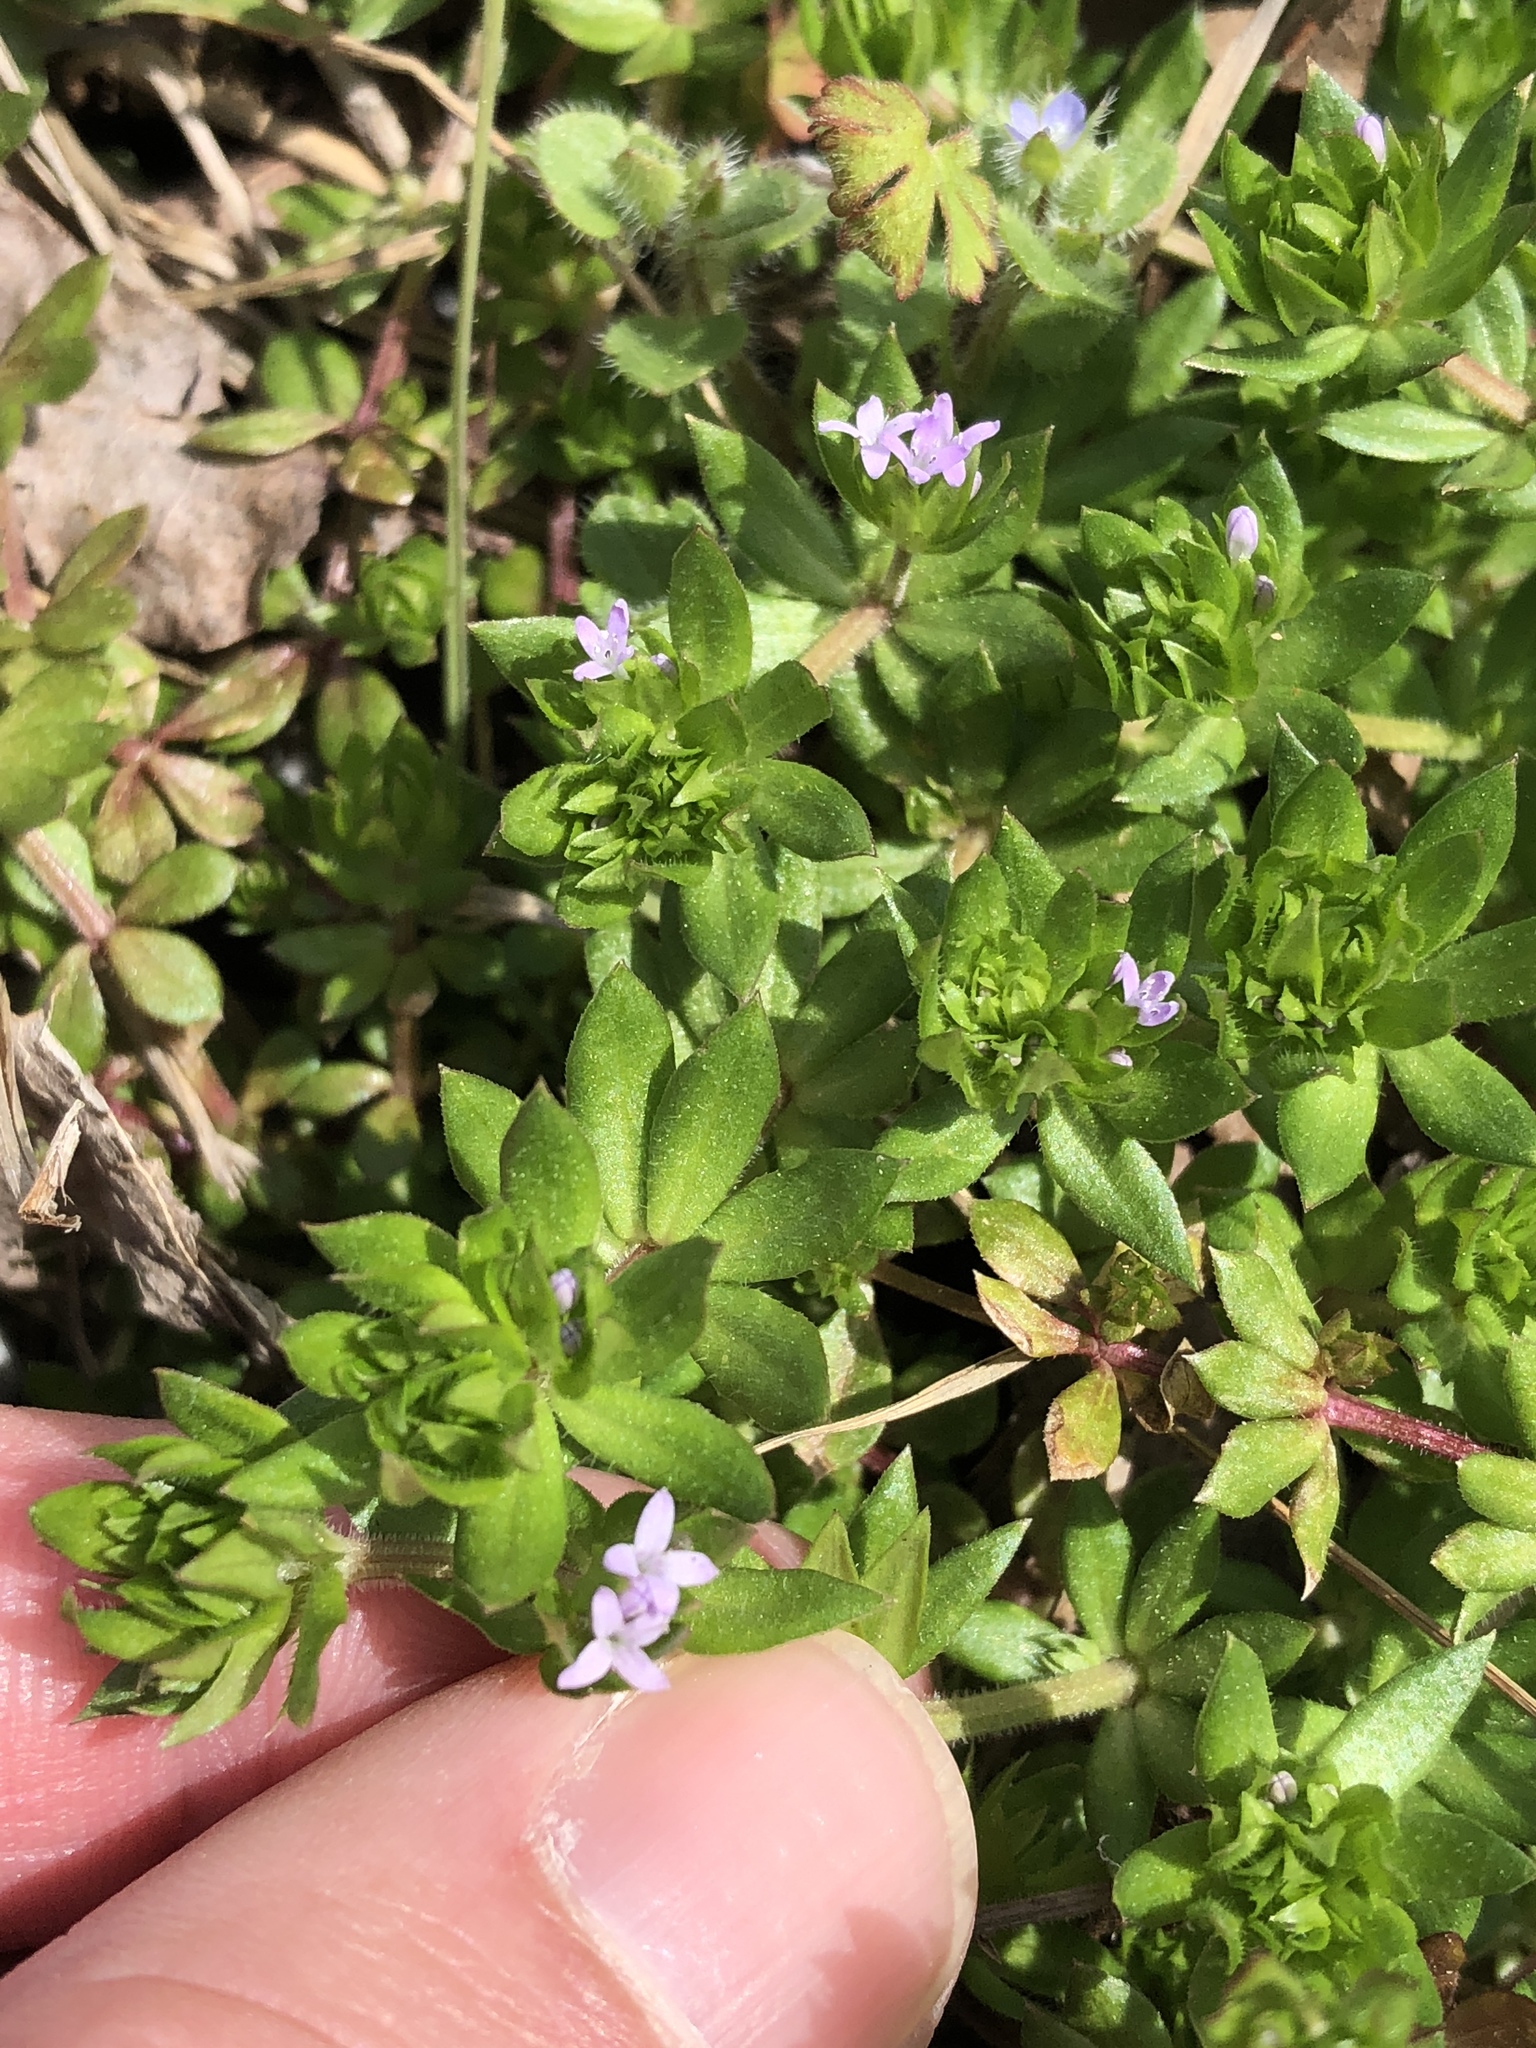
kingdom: Plantae
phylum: Tracheophyta
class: Magnoliopsida
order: Gentianales
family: Rubiaceae
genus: Sherardia
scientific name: Sherardia arvensis
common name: Field madder
